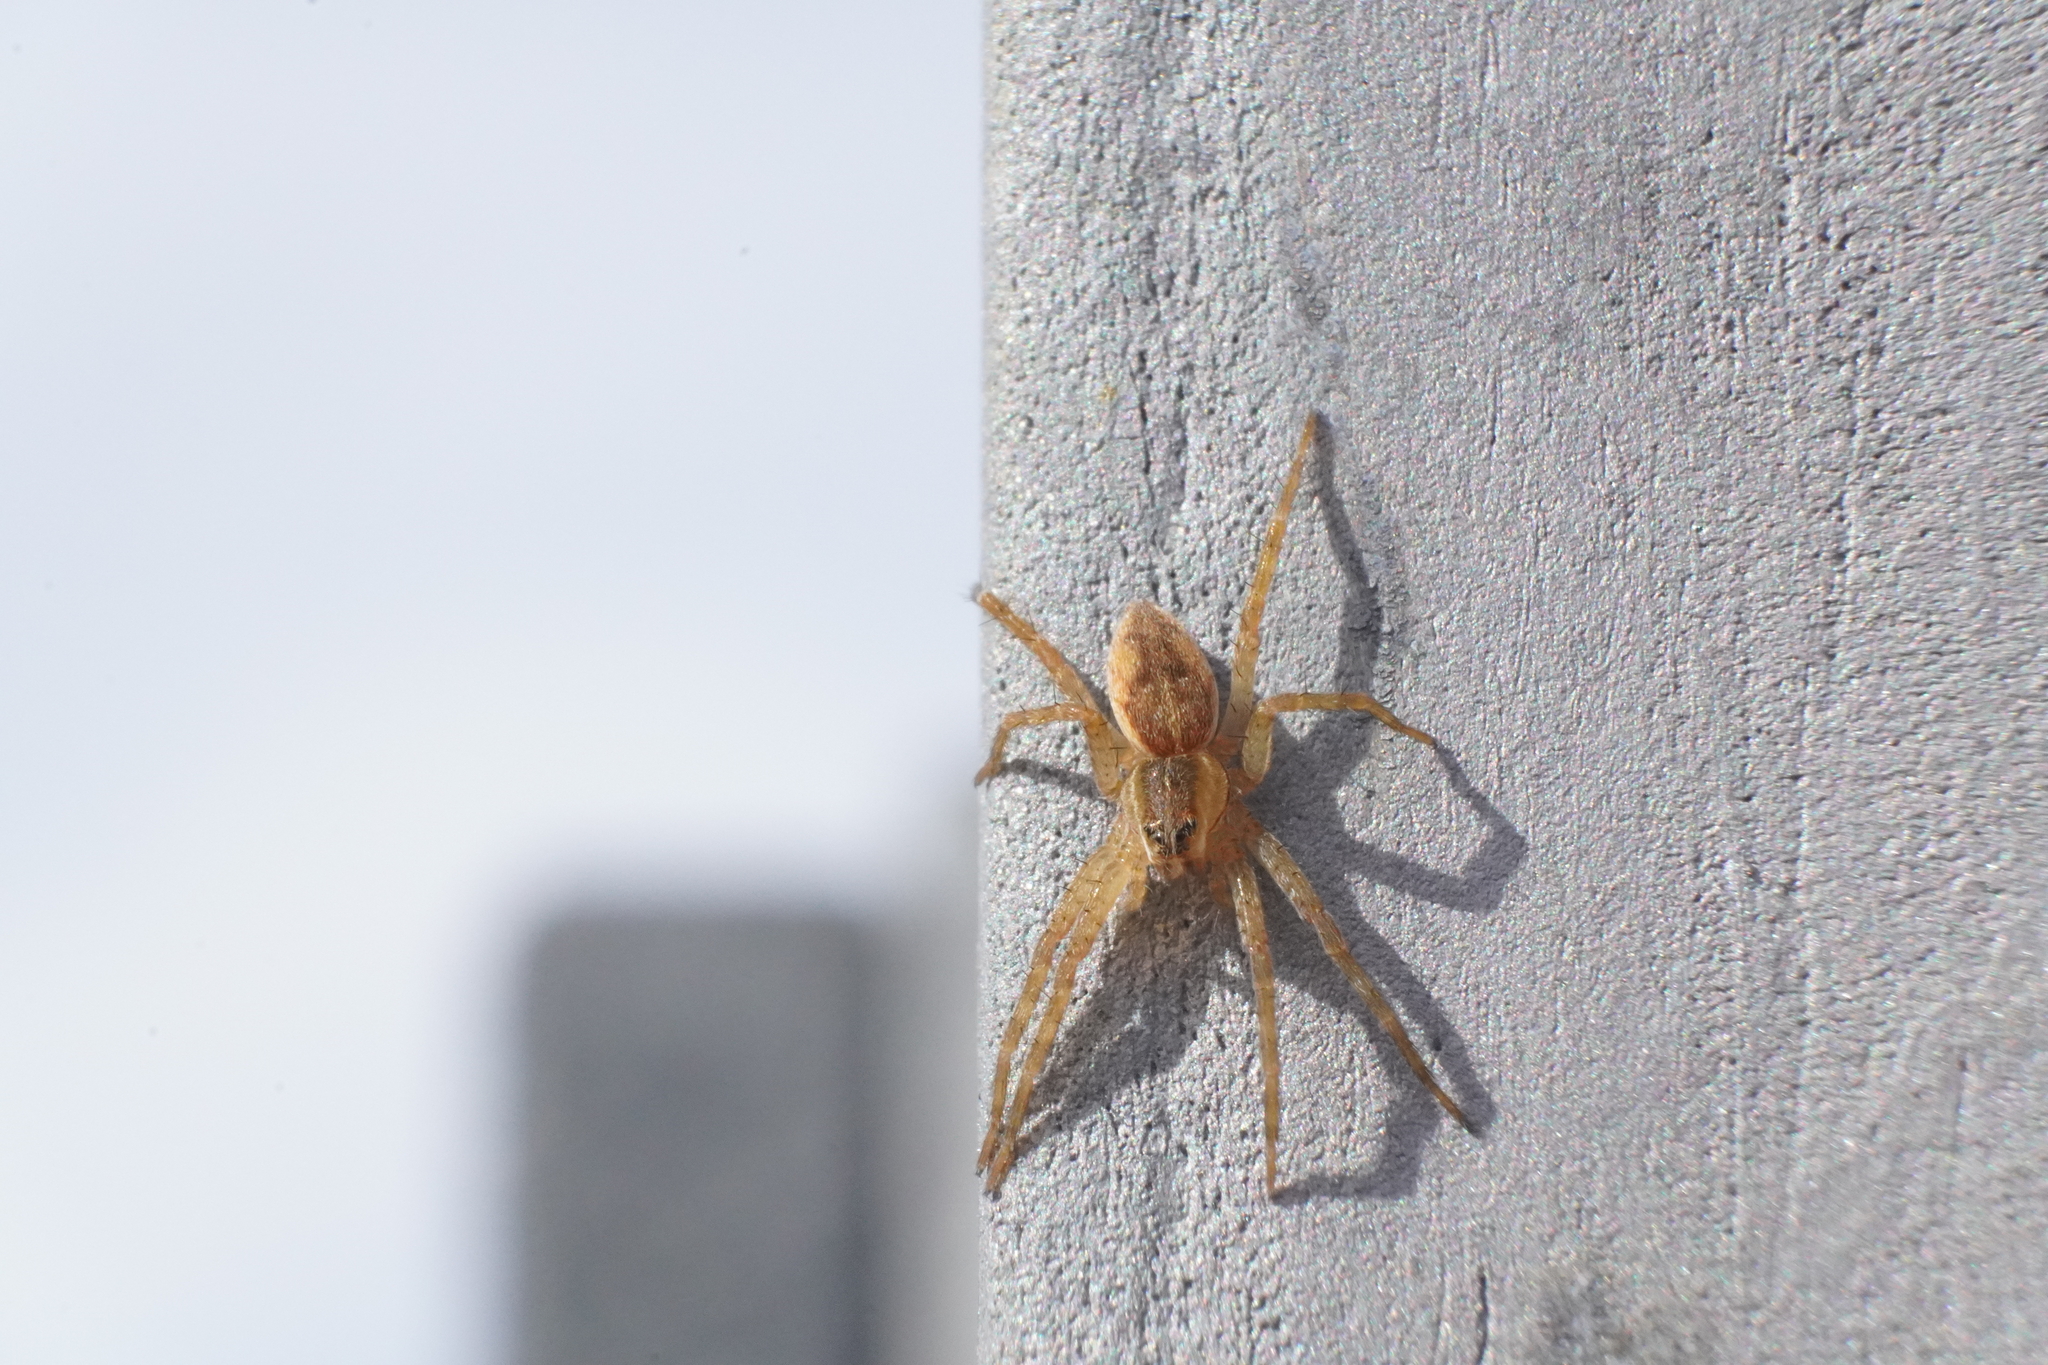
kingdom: Animalia
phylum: Arthropoda
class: Arachnida
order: Araneae
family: Pisauridae
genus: Dolomedes
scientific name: Dolomedes triton
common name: Six-spotted fishing spider
